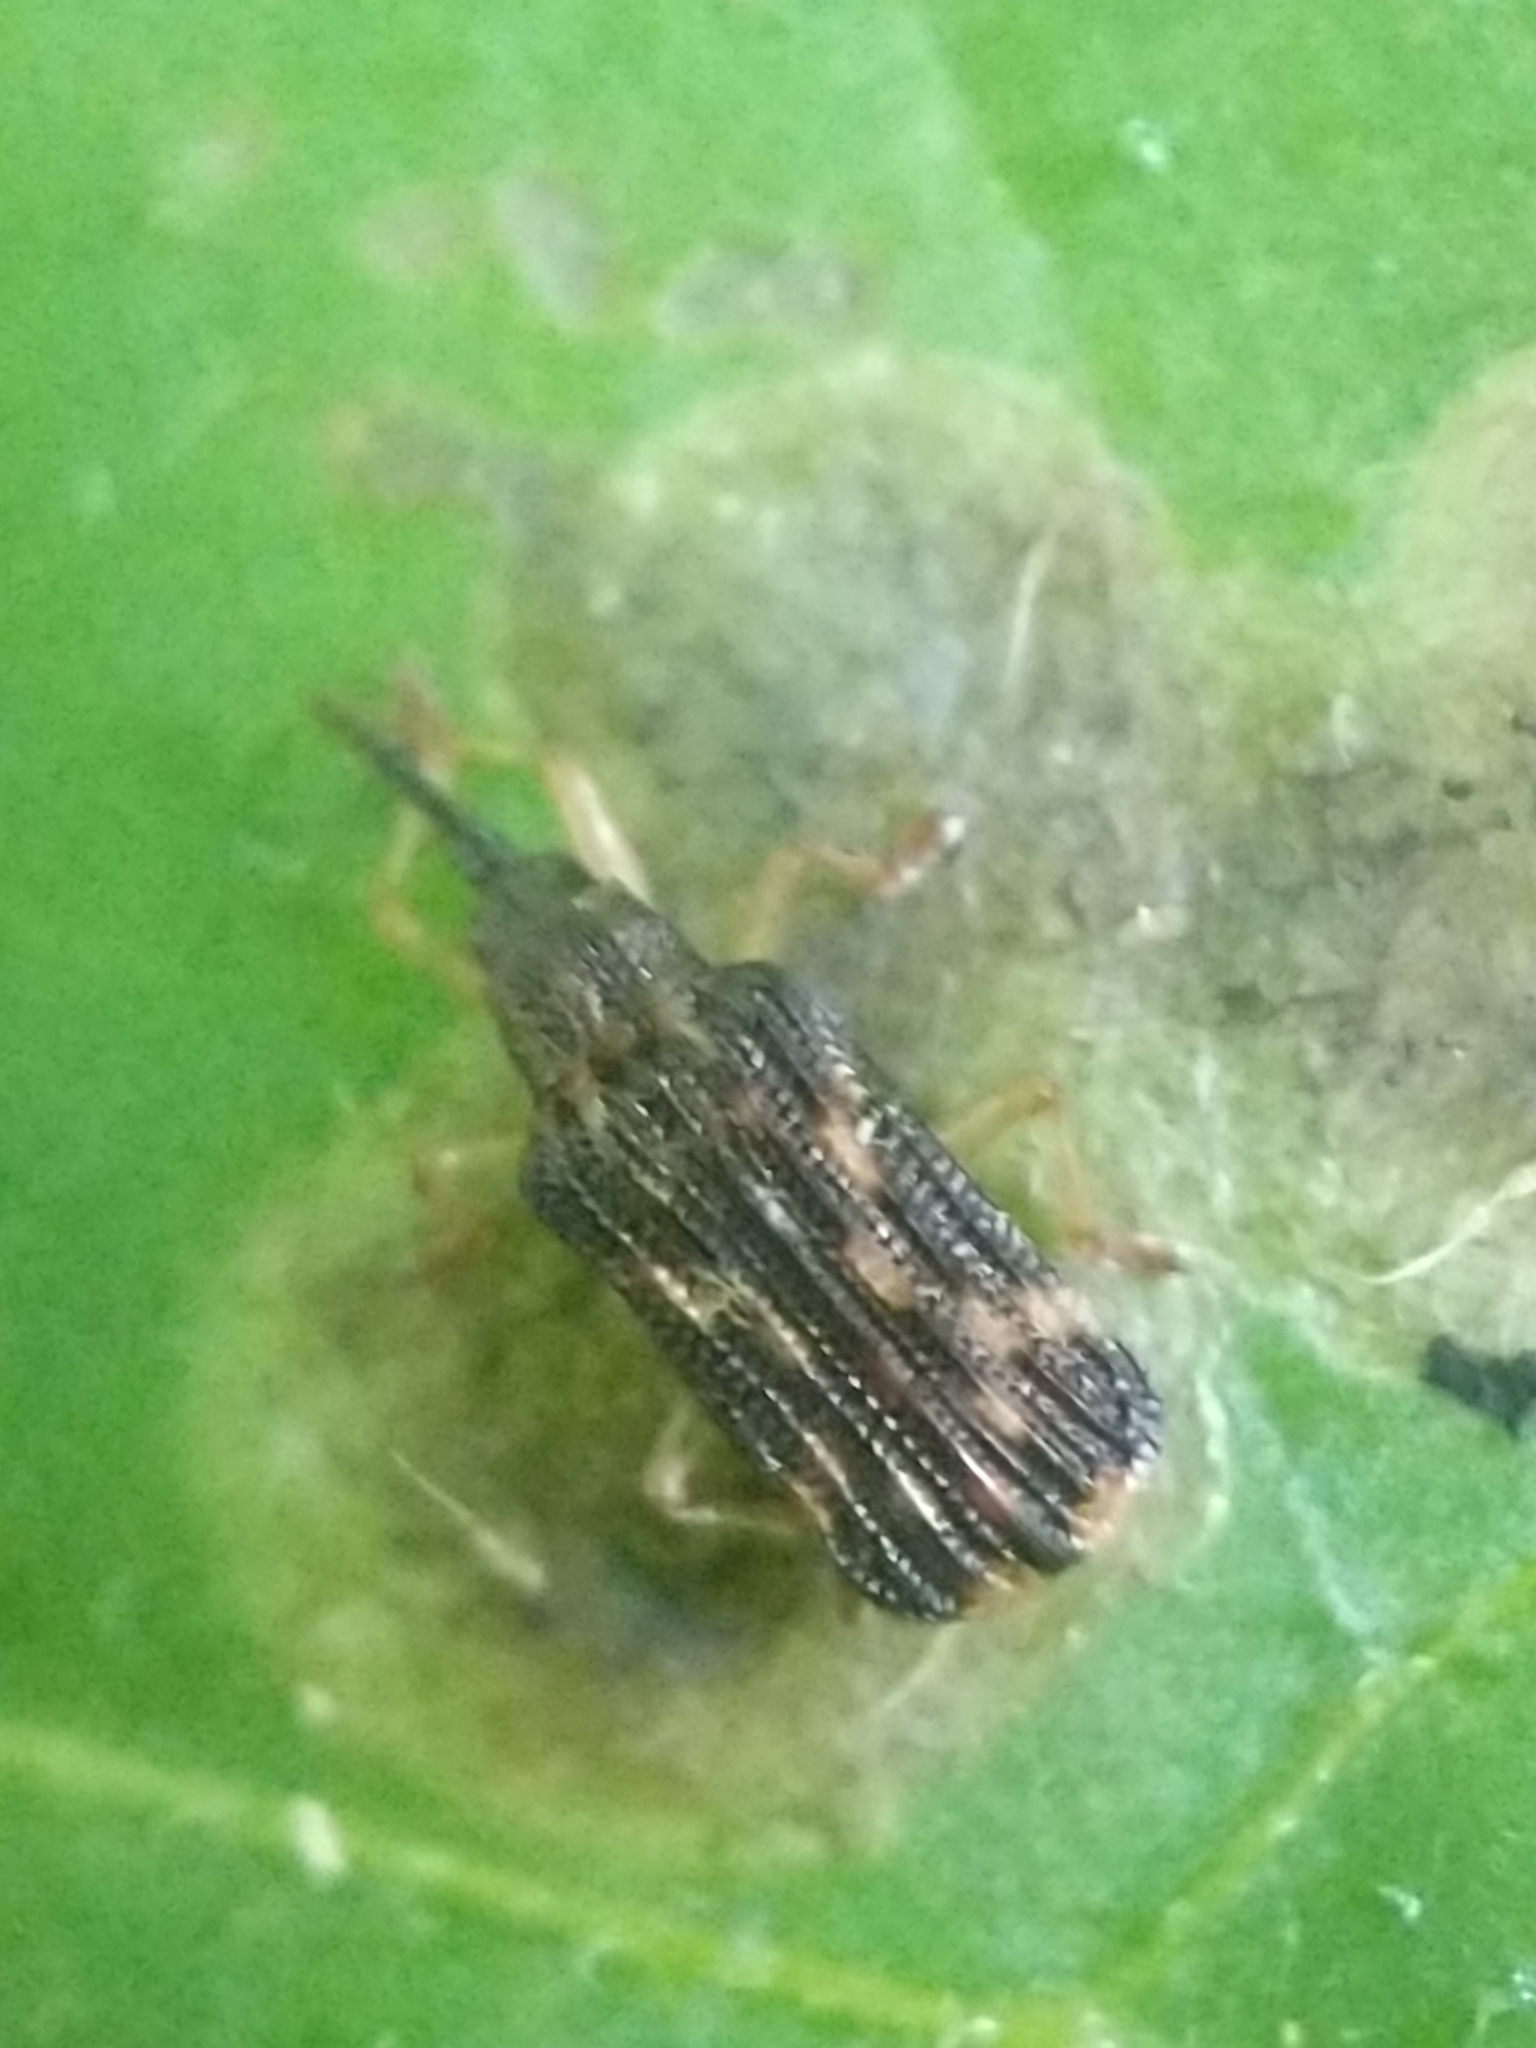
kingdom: Animalia
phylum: Arthropoda
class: Insecta
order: Coleoptera
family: Chrysomelidae
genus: Sumitrosis
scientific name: Sumitrosis inaequalis
